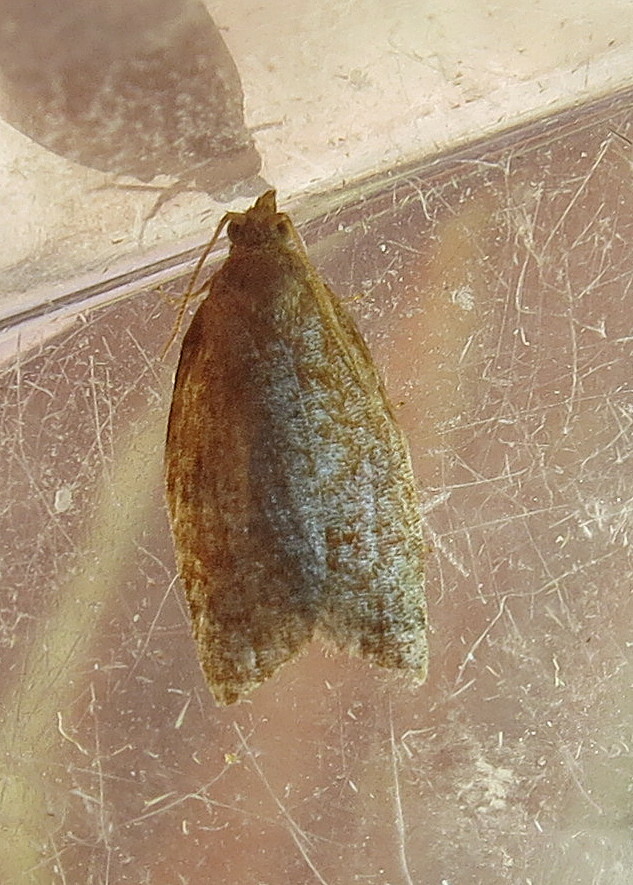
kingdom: Animalia
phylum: Arthropoda
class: Insecta
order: Lepidoptera
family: Tortricidae
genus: Clepsis
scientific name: Clepsis consimilana
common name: Privet tortrix
